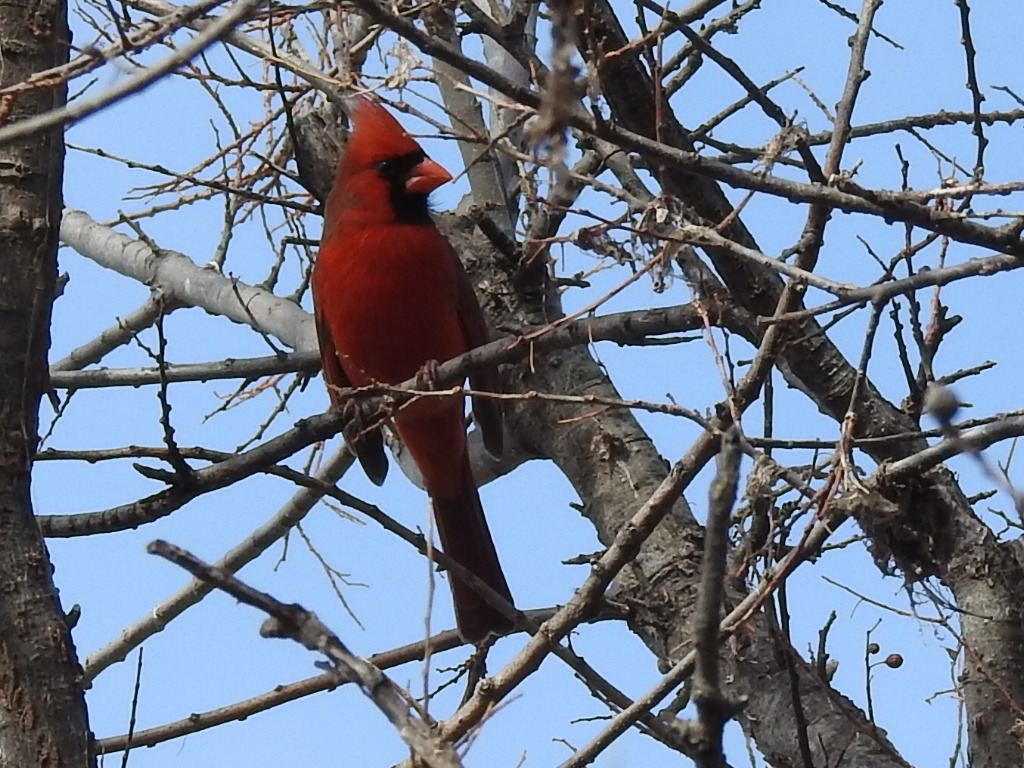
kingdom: Animalia
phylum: Chordata
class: Aves
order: Passeriformes
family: Cardinalidae
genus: Cardinalis
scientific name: Cardinalis cardinalis
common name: Northern cardinal
